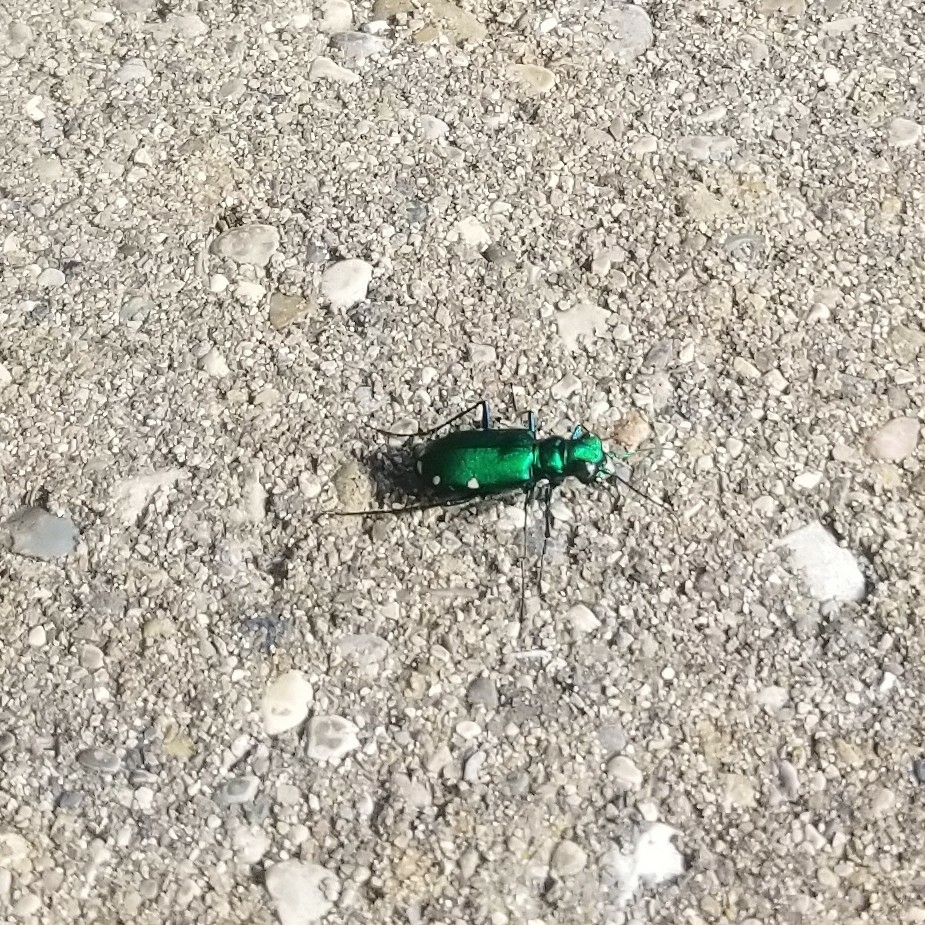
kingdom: Animalia
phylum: Arthropoda
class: Insecta
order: Coleoptera
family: Carabidae
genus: Cicindela
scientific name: Cicindela sexguttata
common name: Six-spotted tiger beetle
